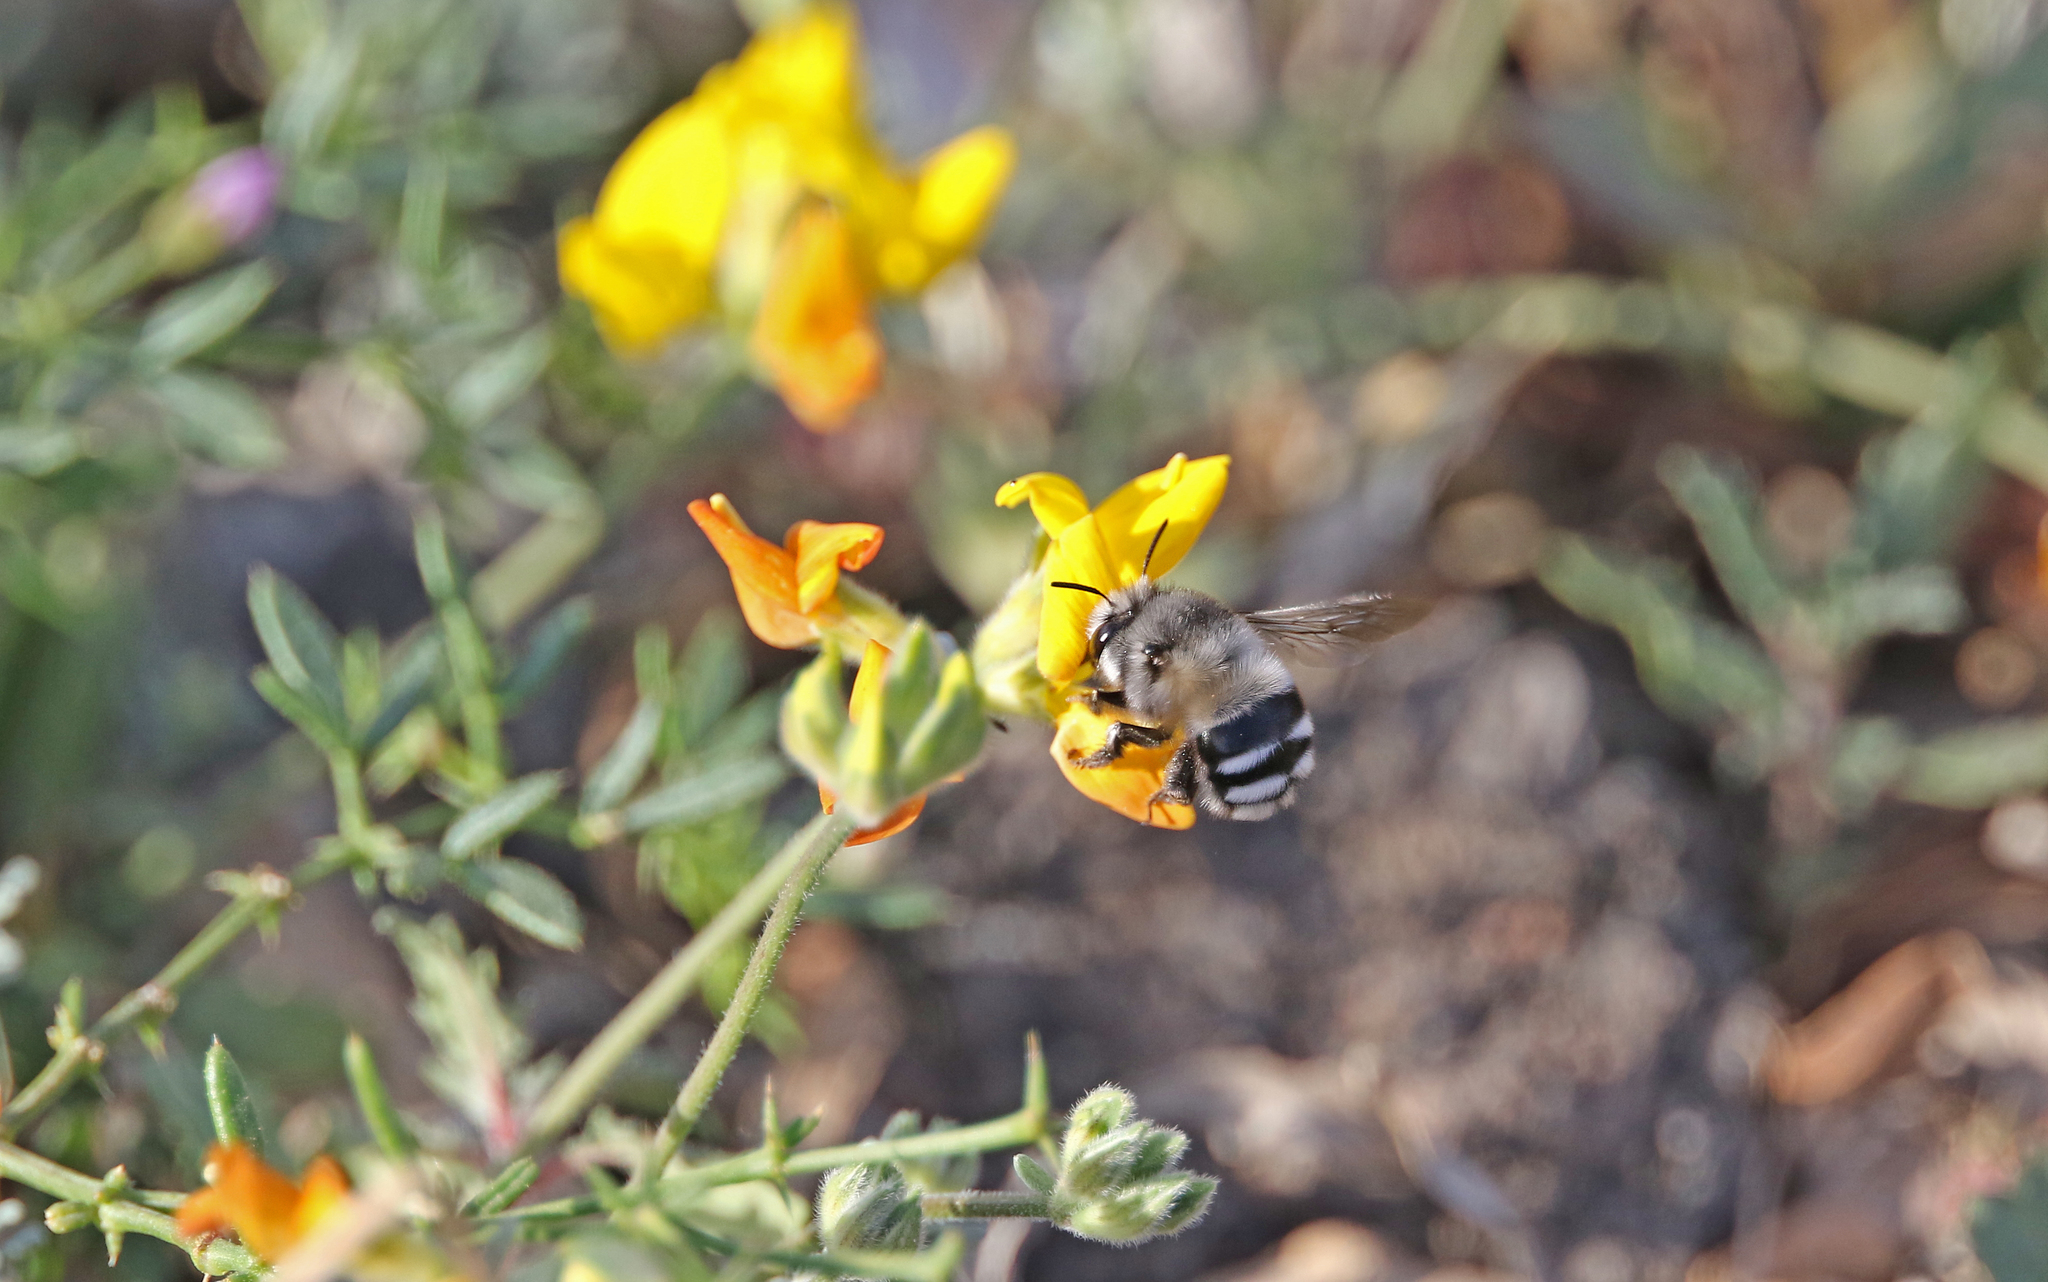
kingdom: Animalia
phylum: Arthropoda
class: Insecta
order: Hymenoptera
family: Apidae
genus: Anthophora
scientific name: Anthophora alluaudi
